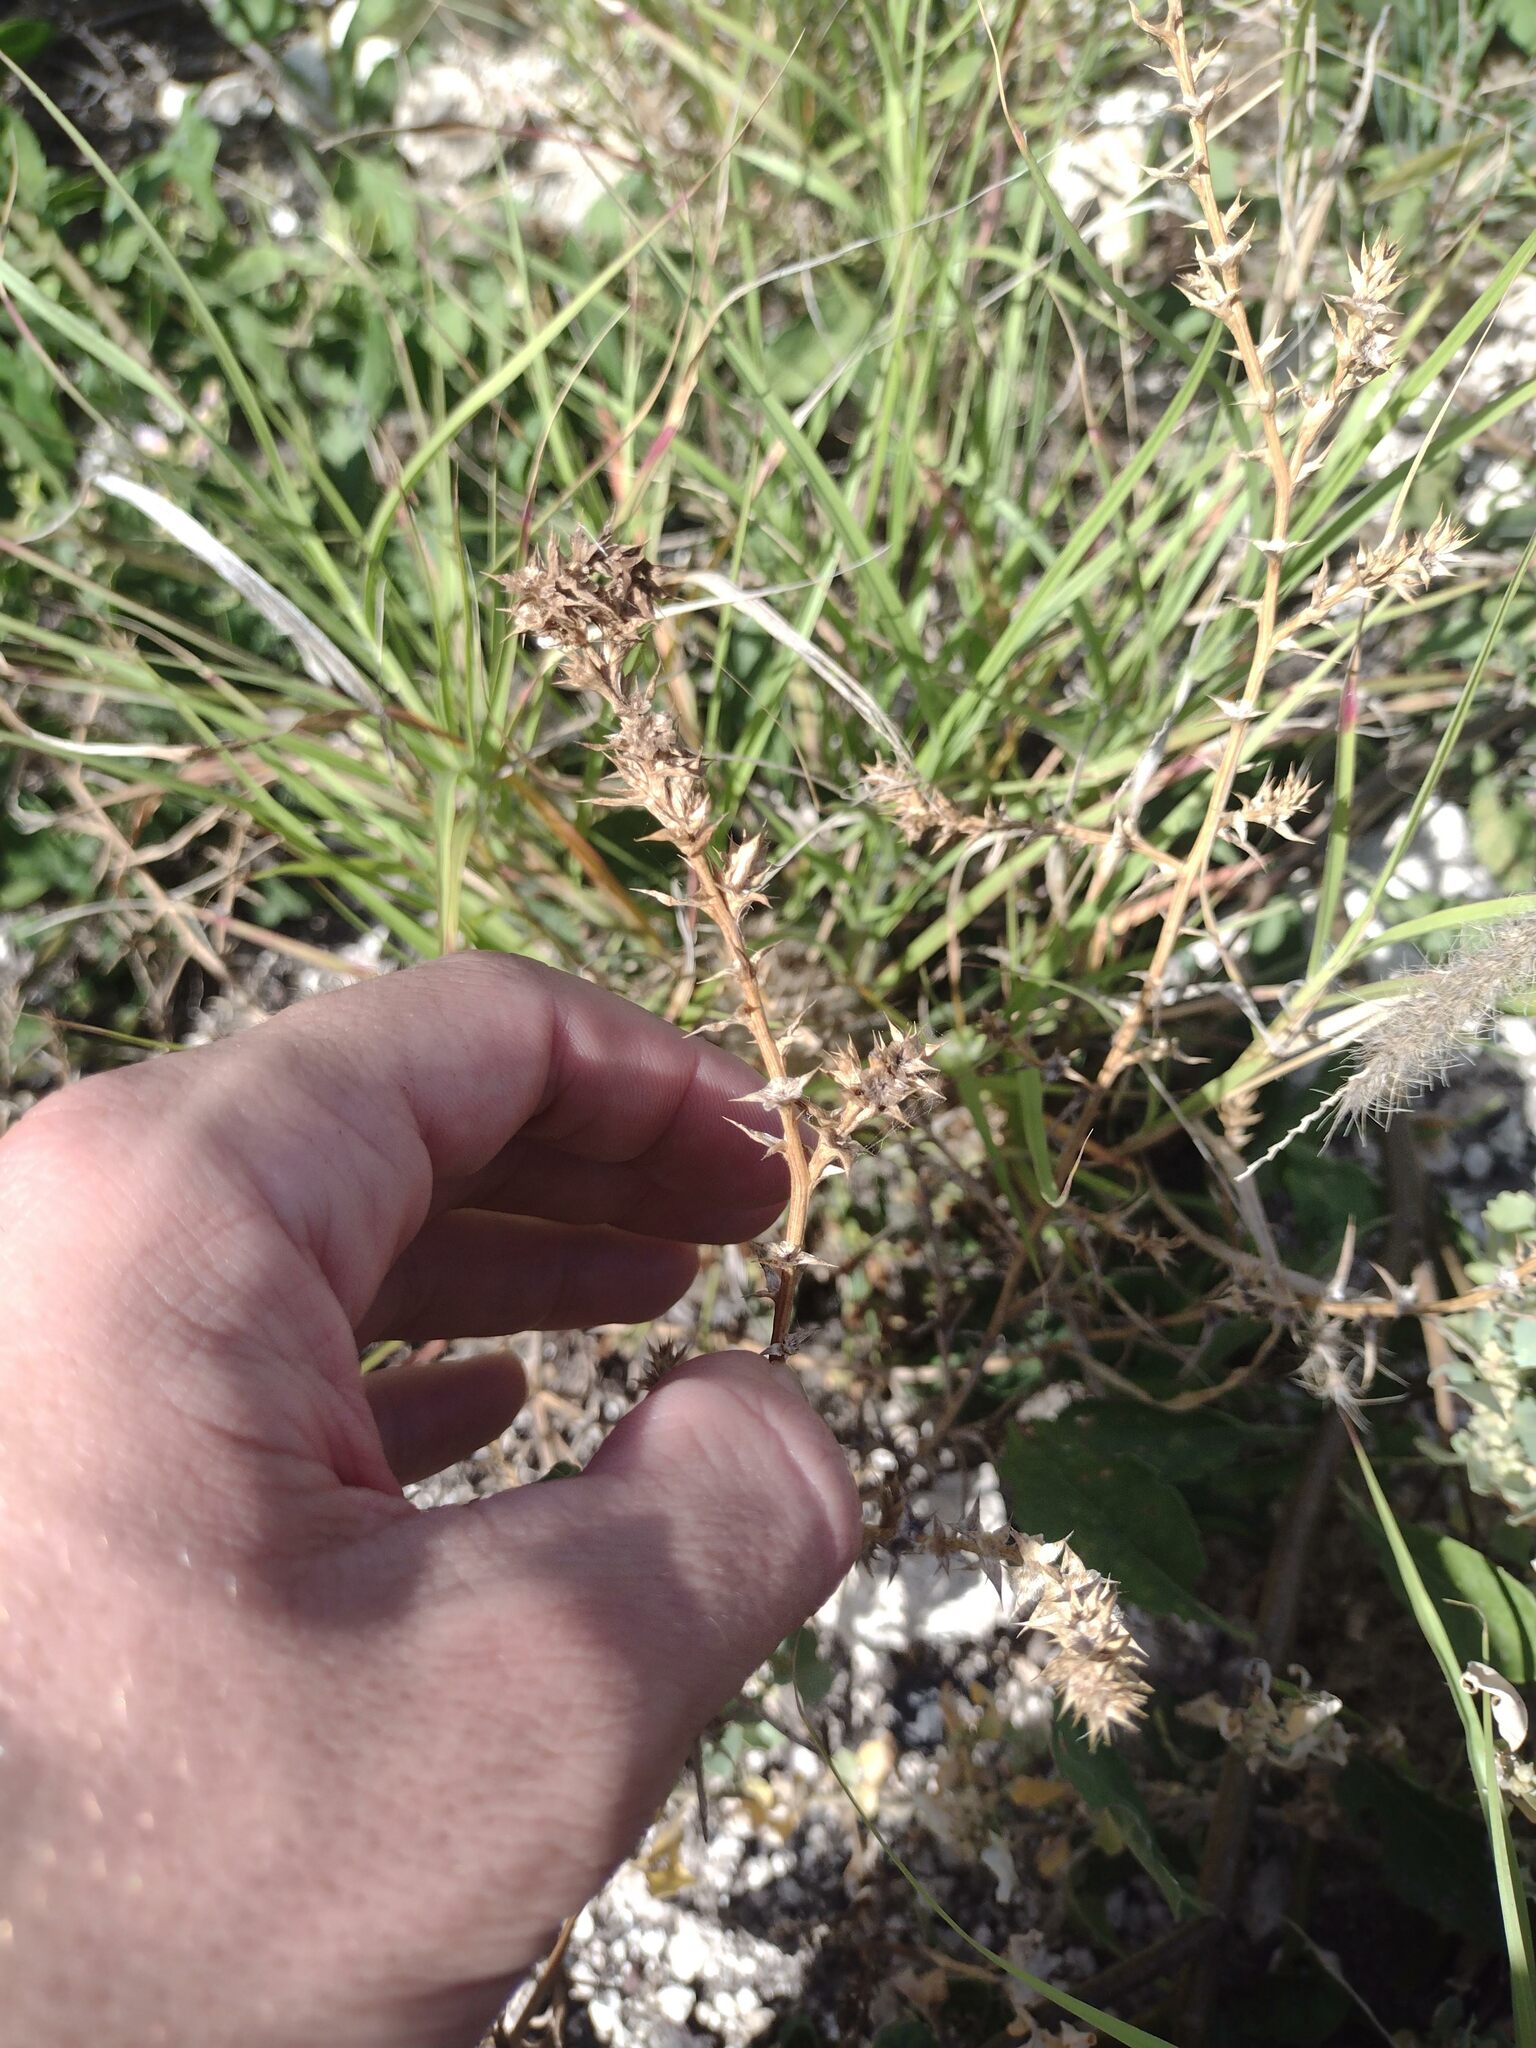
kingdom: Plantae
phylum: Tracheophyta
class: Magnoliopsida
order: Caryophyllales
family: Amaranthaceae
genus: Salsola
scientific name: Salsola tragus
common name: Prickly russian thistle
